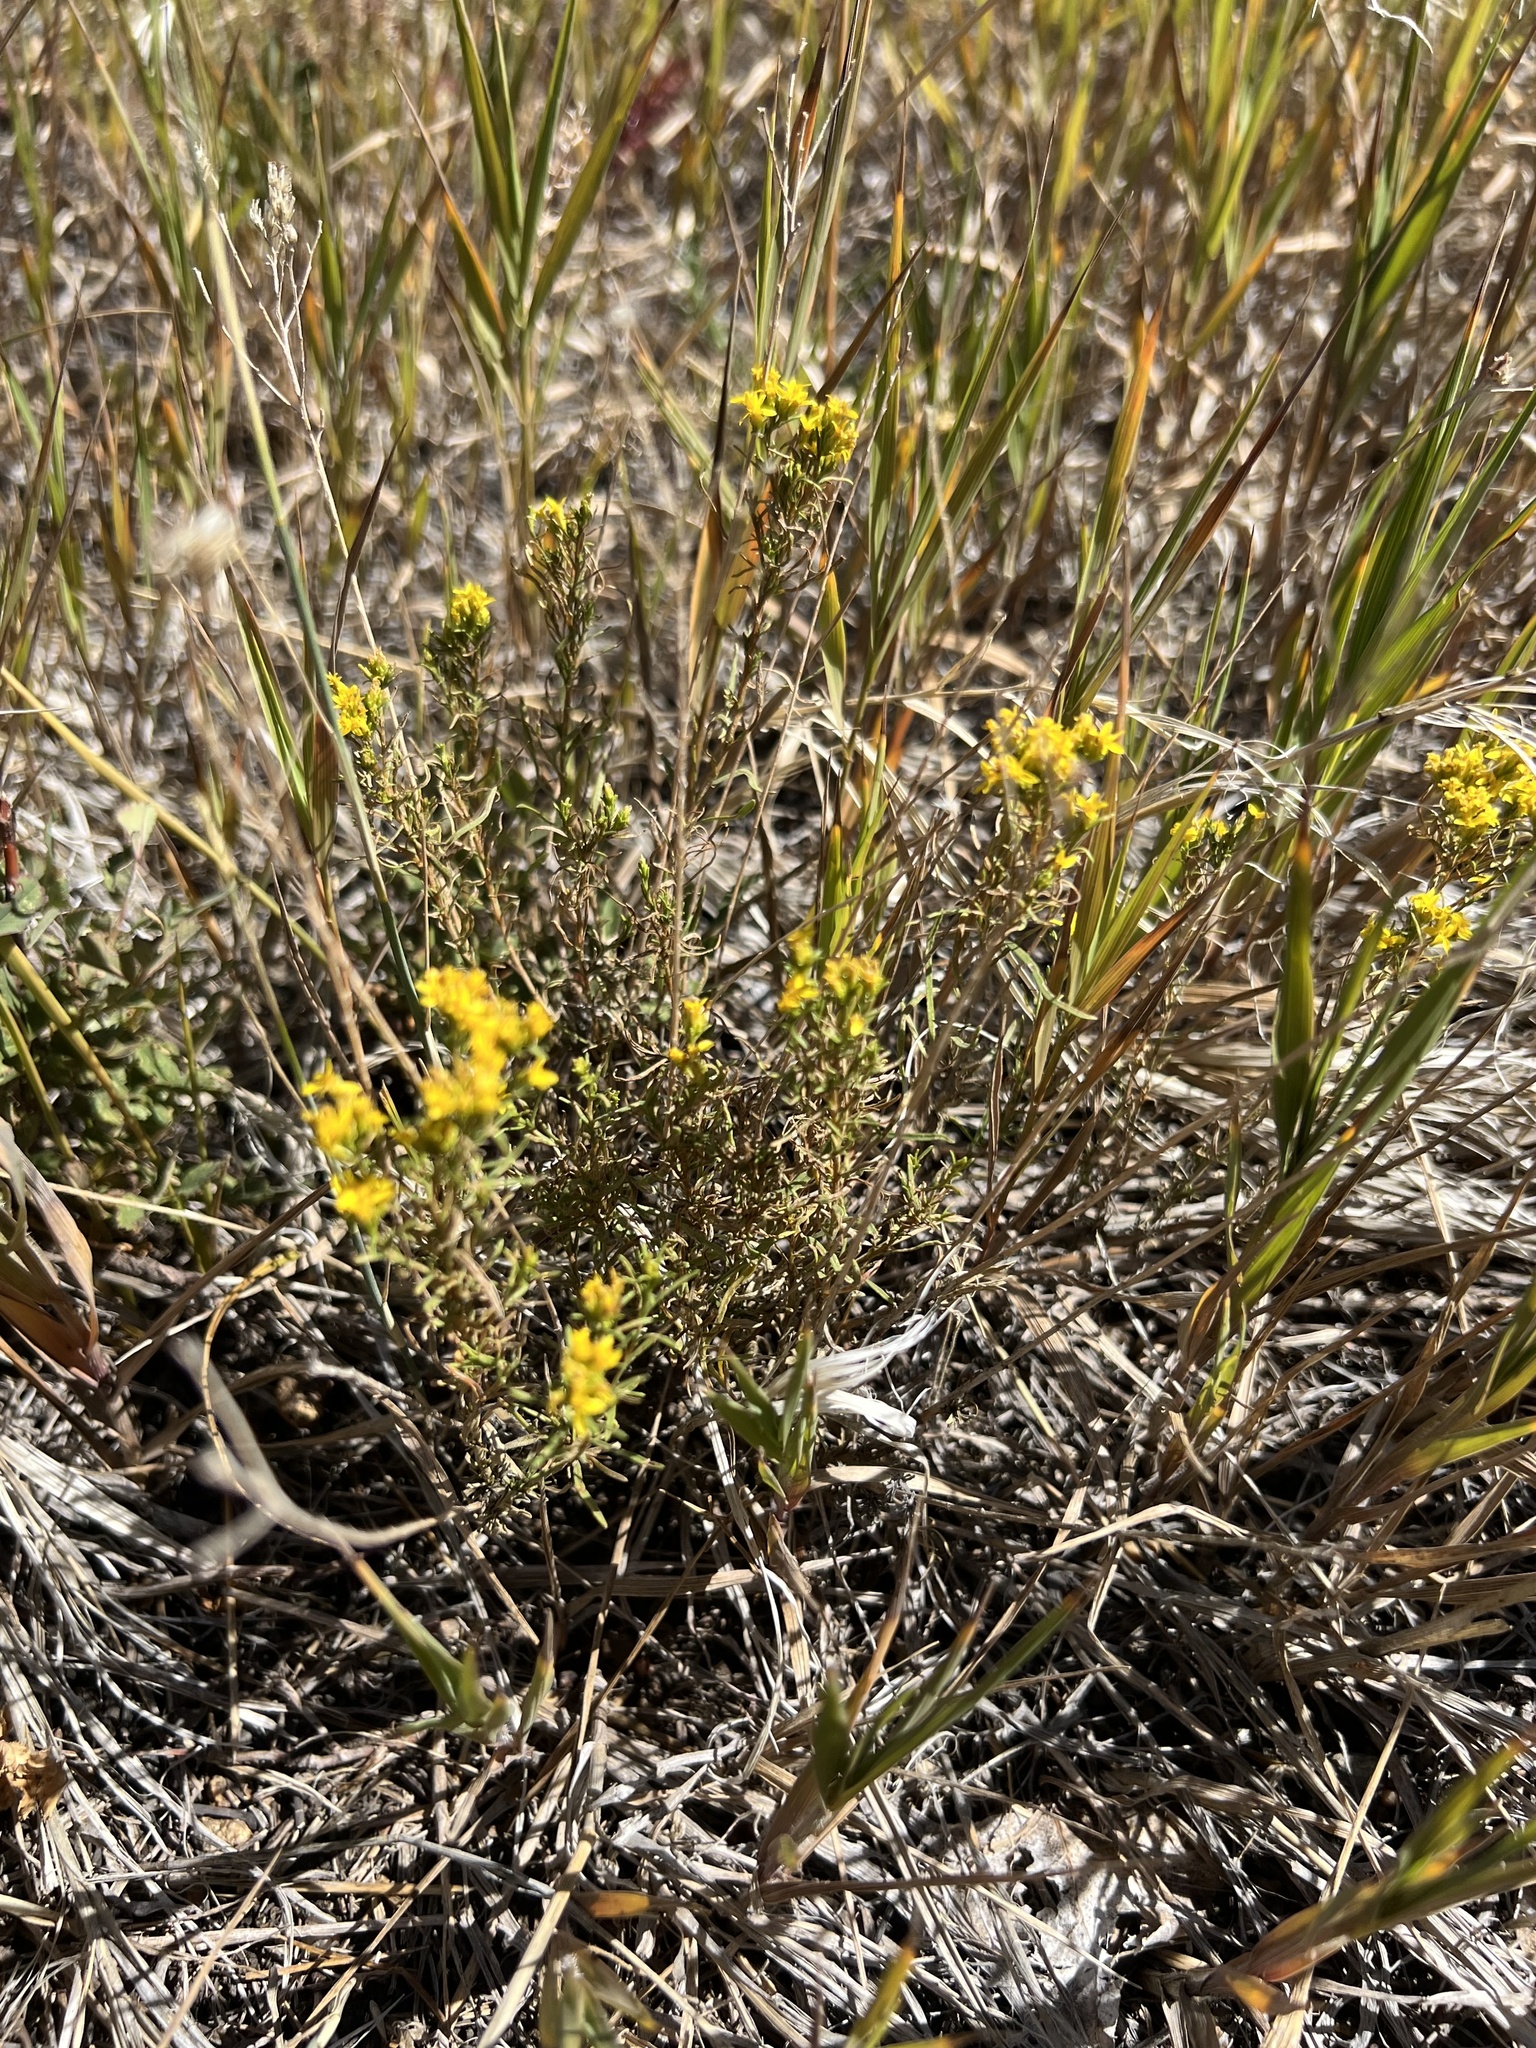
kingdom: Plantae
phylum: Tracheophyta
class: Magnoliopsida
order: Asterales
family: Asteraceae
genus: Gutierrezia
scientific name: Gutierrezia sarothrae
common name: Broom snakeweed
